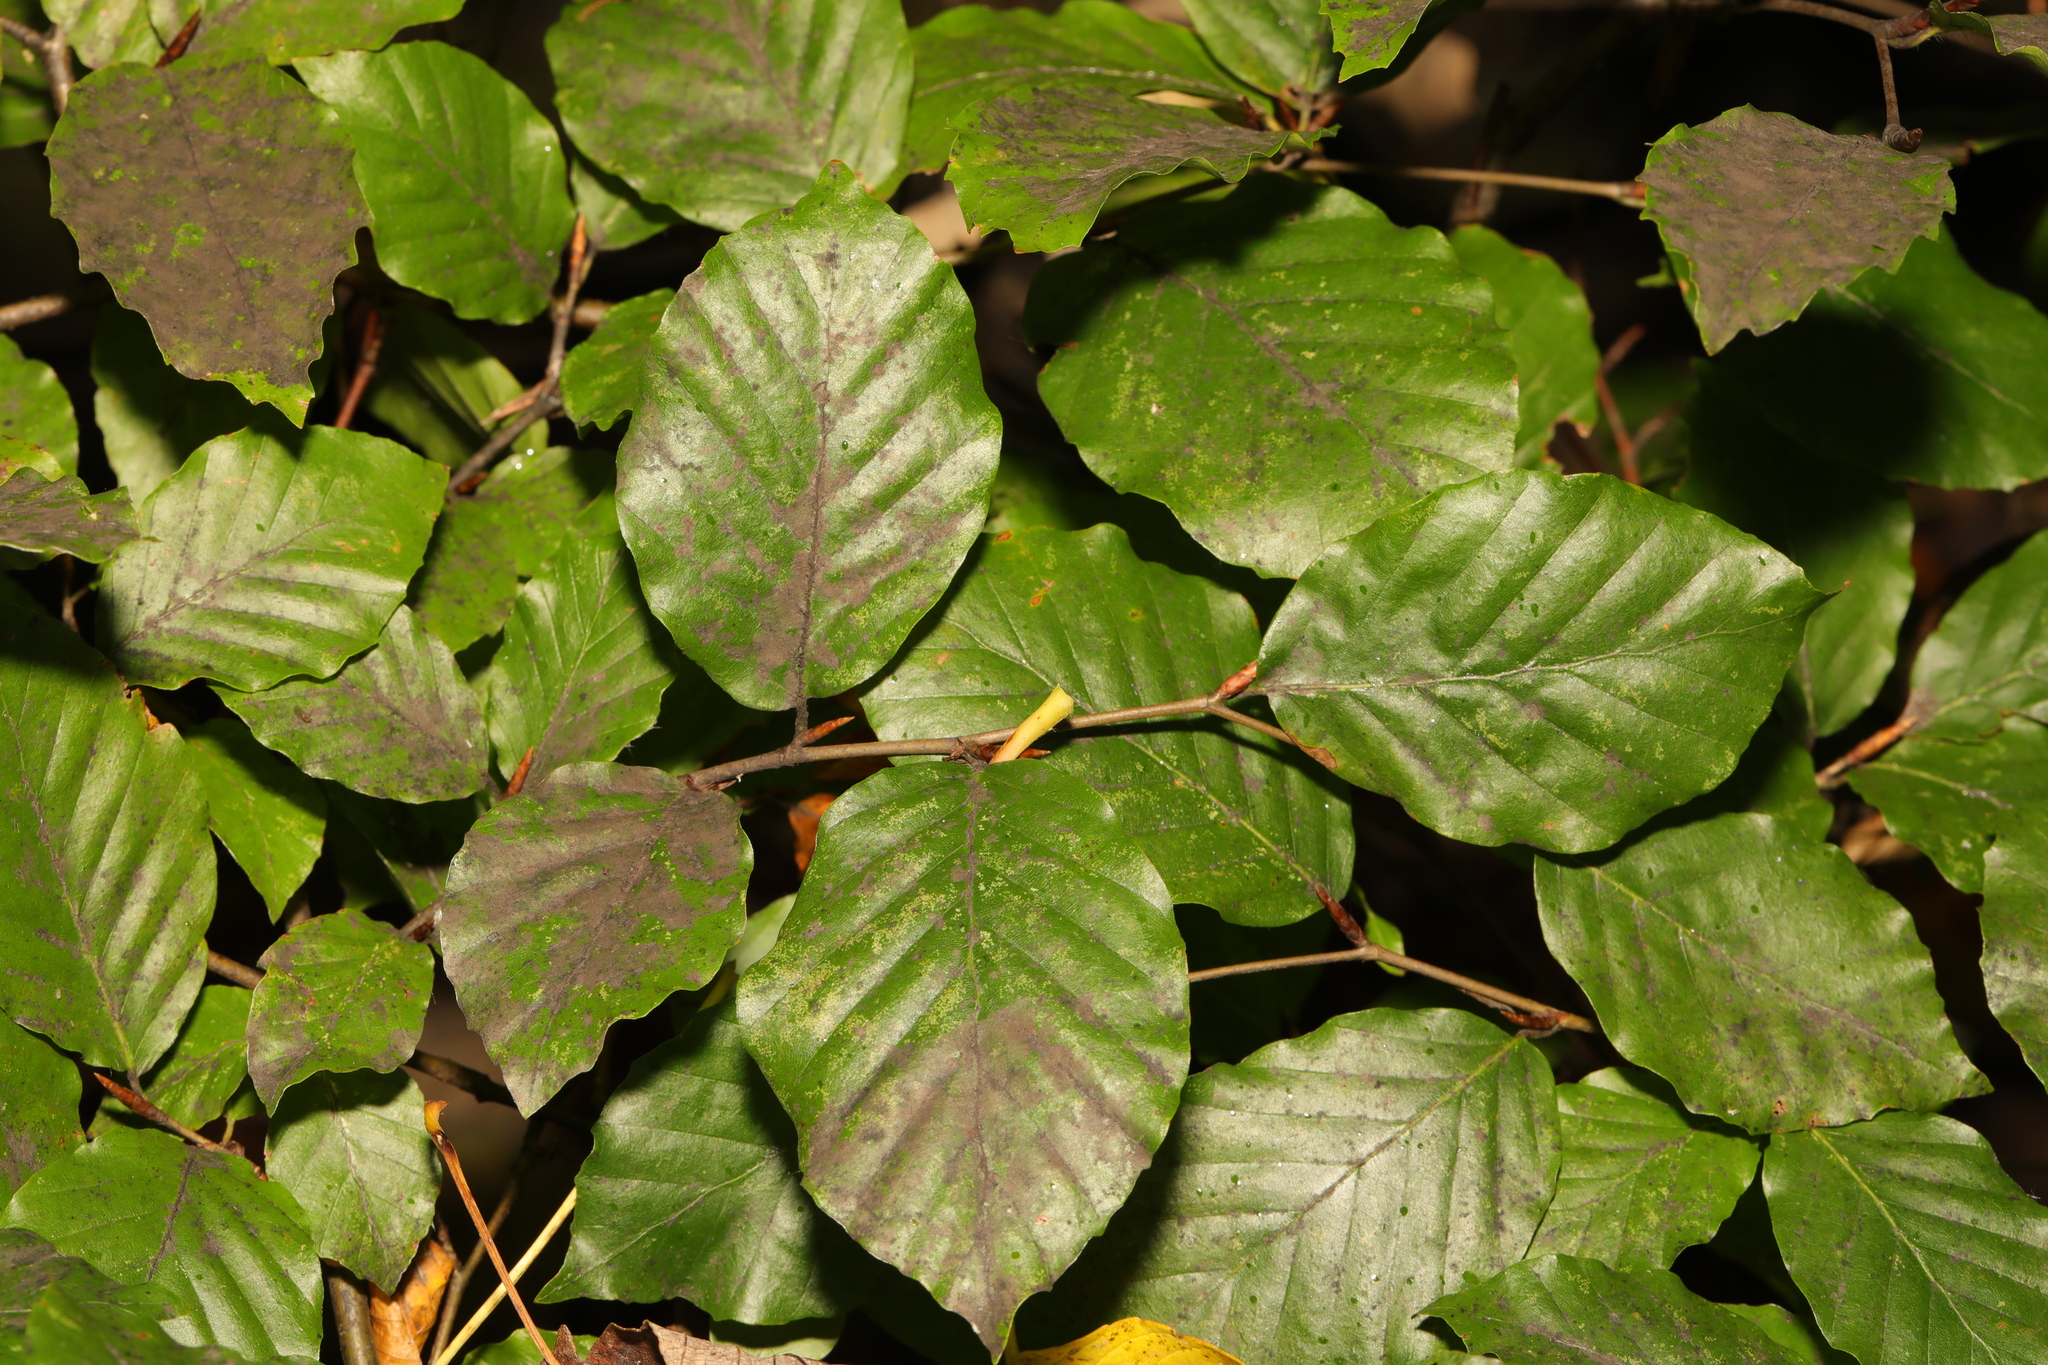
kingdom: Plantae
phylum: Tracheophyta
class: Magnoliopsida
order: Fagales
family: Fagaceae
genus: Fagus
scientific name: Fagus sylvatica
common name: Beech
